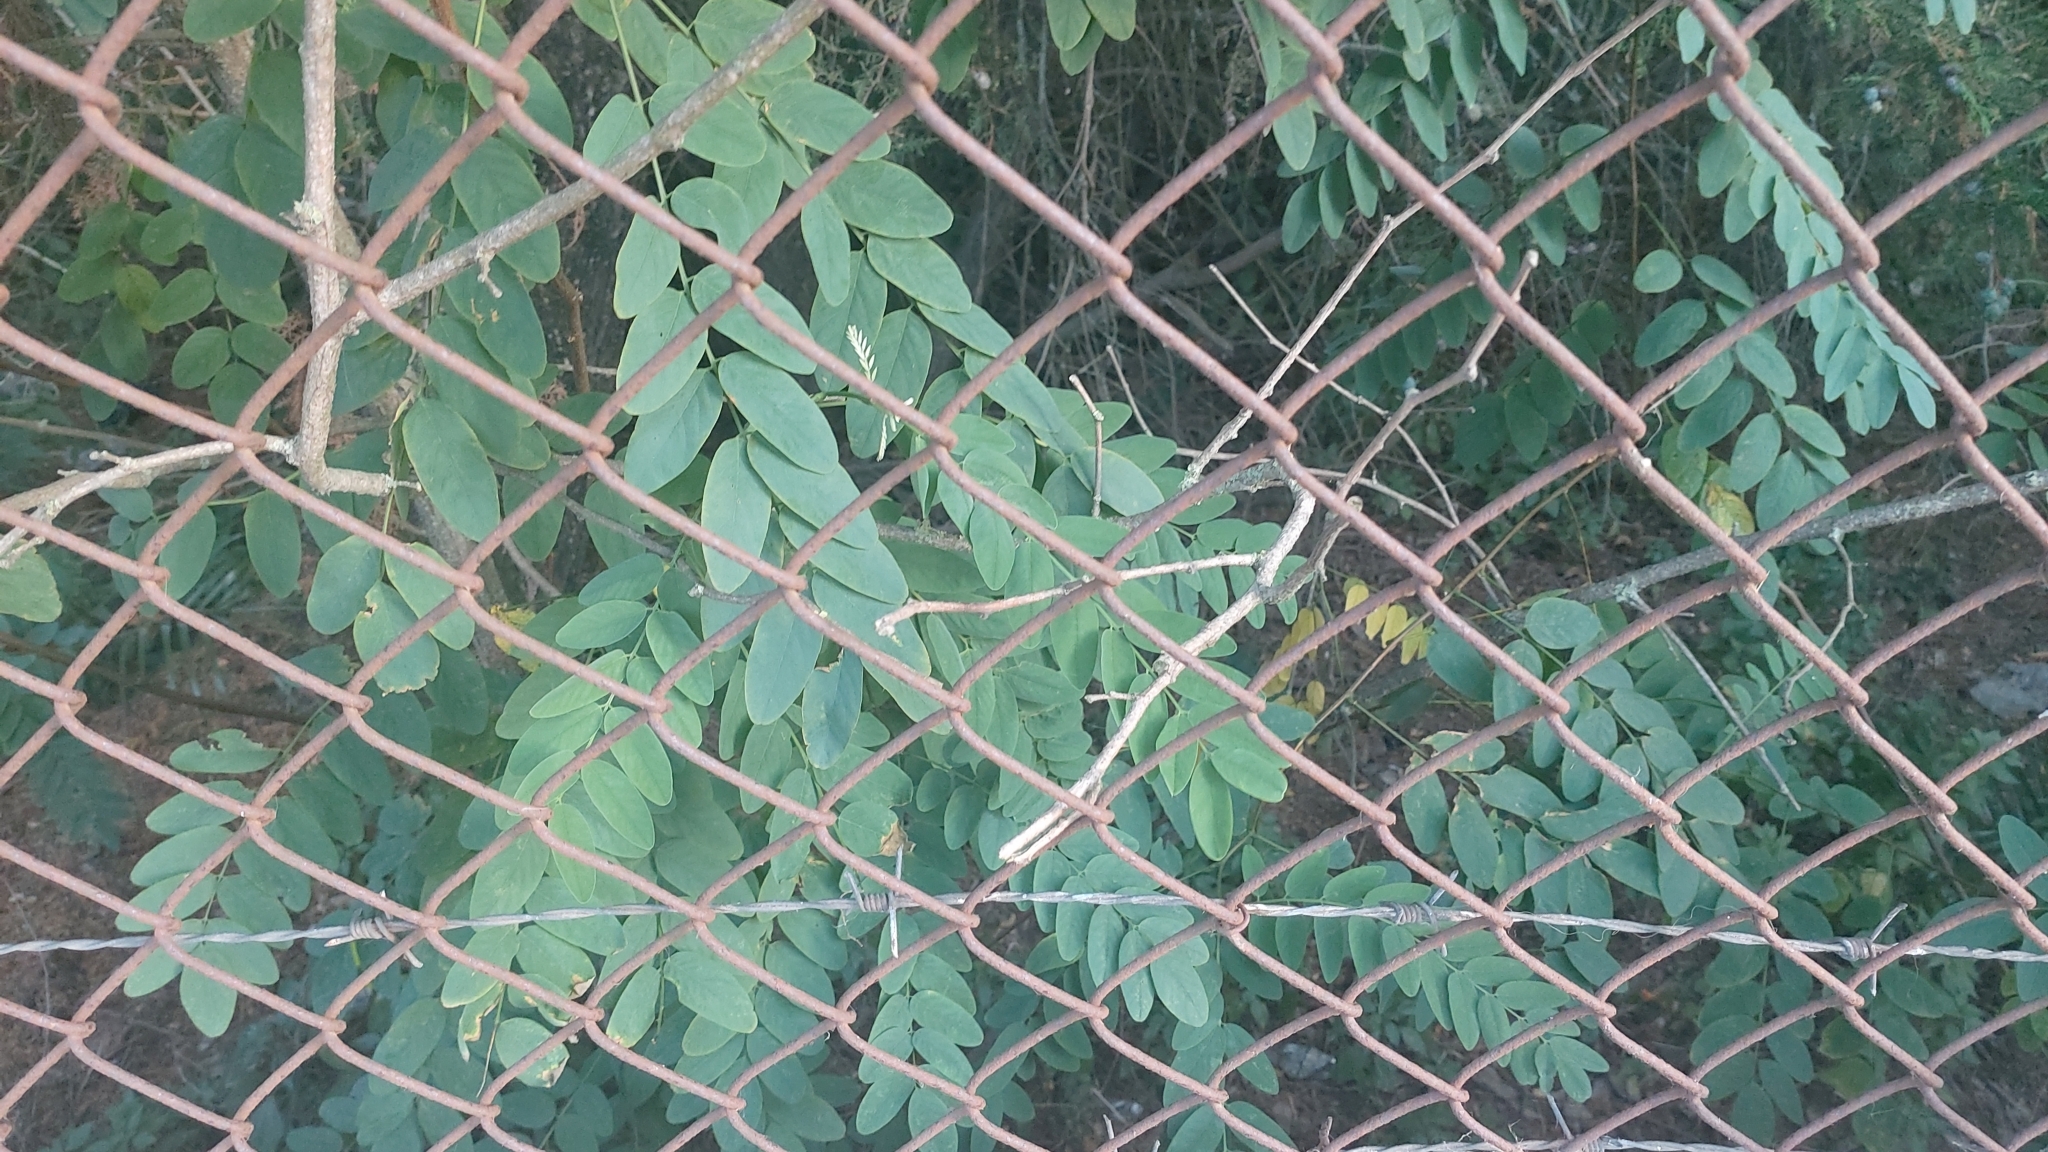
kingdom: Plantae
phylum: Tracheophyta
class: Magnoliopsida
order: Fabales
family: Fabaceae
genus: Robinia
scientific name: Robinia pseudoacacia
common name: Black locust
